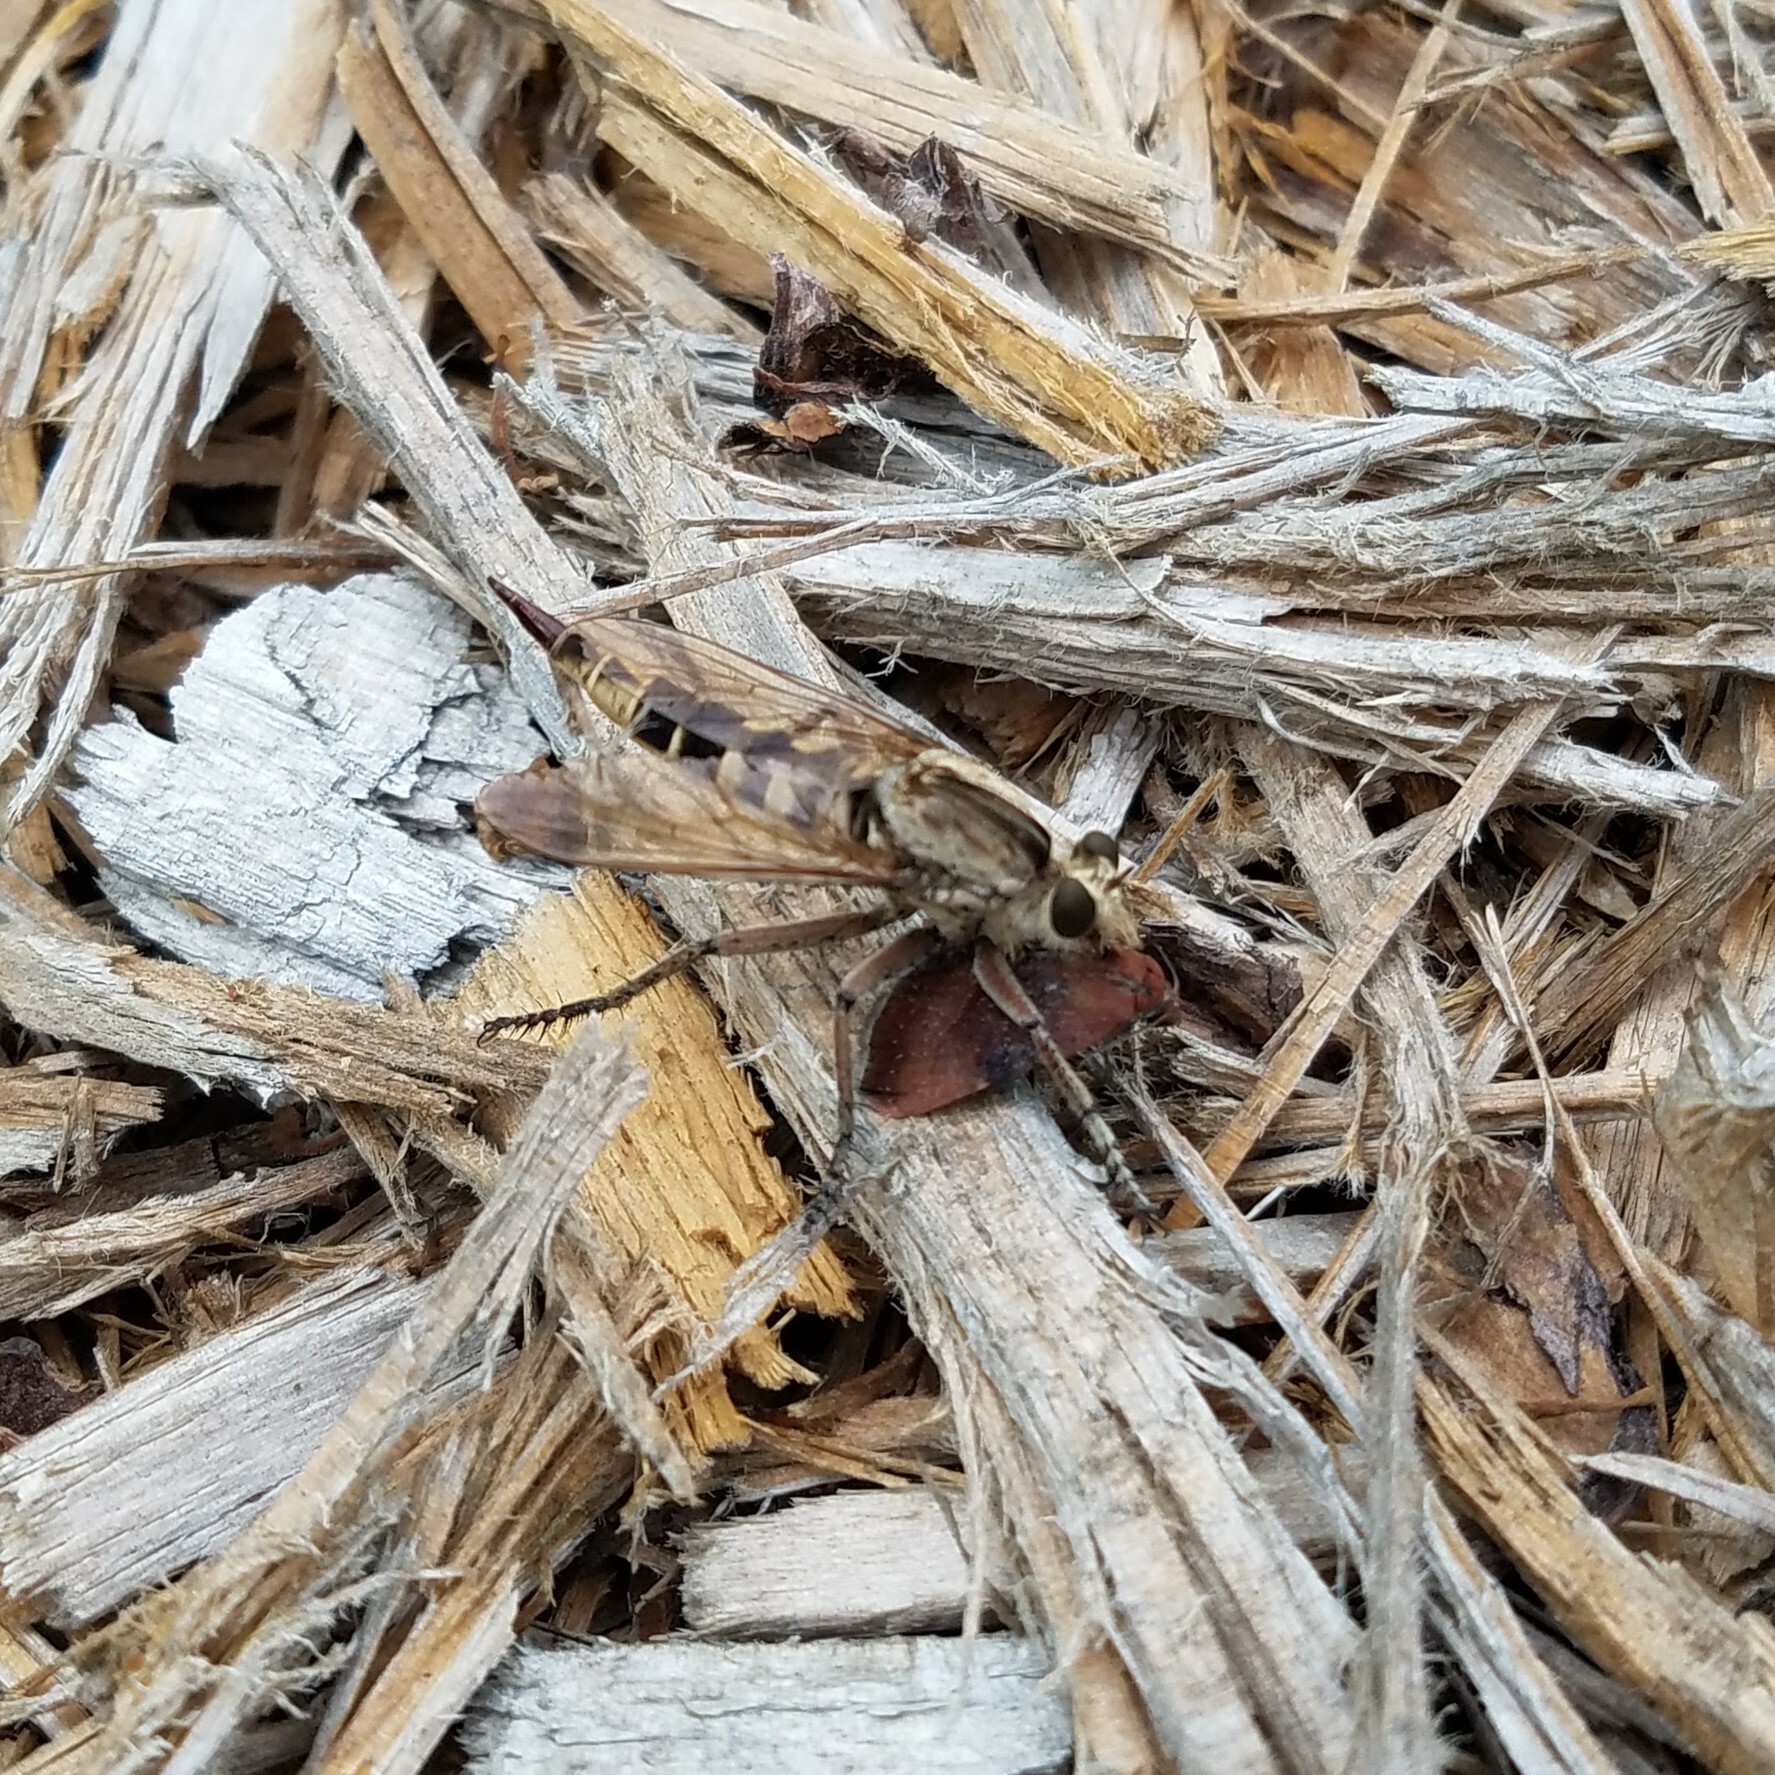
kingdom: Animalia
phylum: Arthropoda
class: Insecta
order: Diptera
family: Asilidae
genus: Triorla
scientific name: Triorla interrupta
